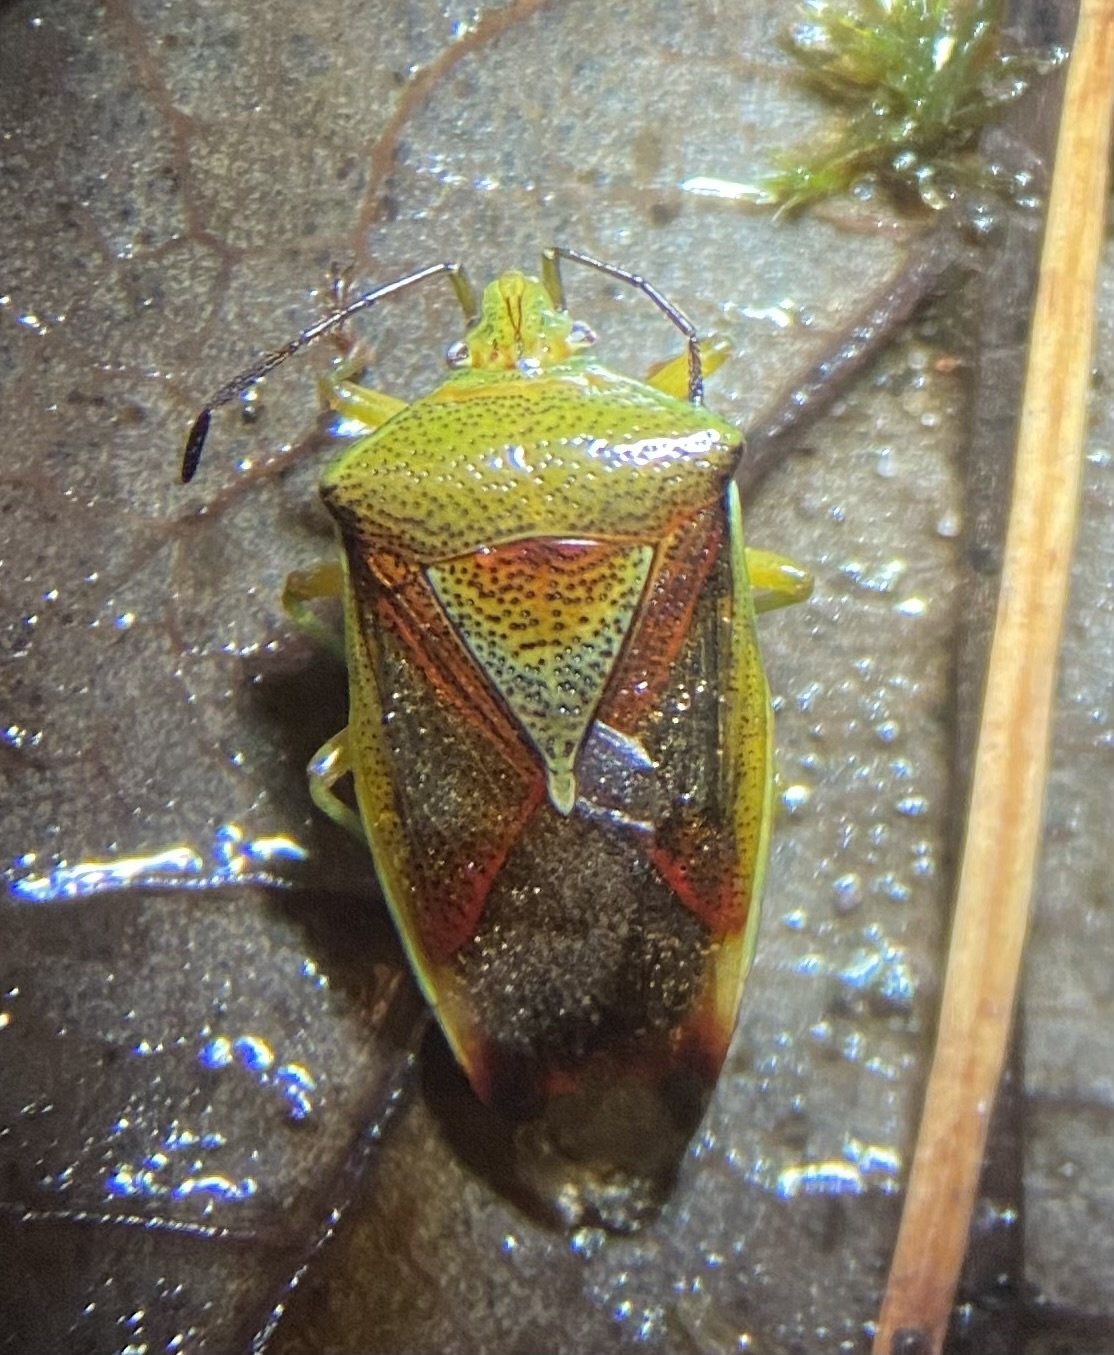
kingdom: Animalia
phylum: Arthropoda
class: Insecta
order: Hemiptera
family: Acanthosomatidae
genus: Elasmostethus
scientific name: Elasmostethus interstinctus
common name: Birch shieldbug
